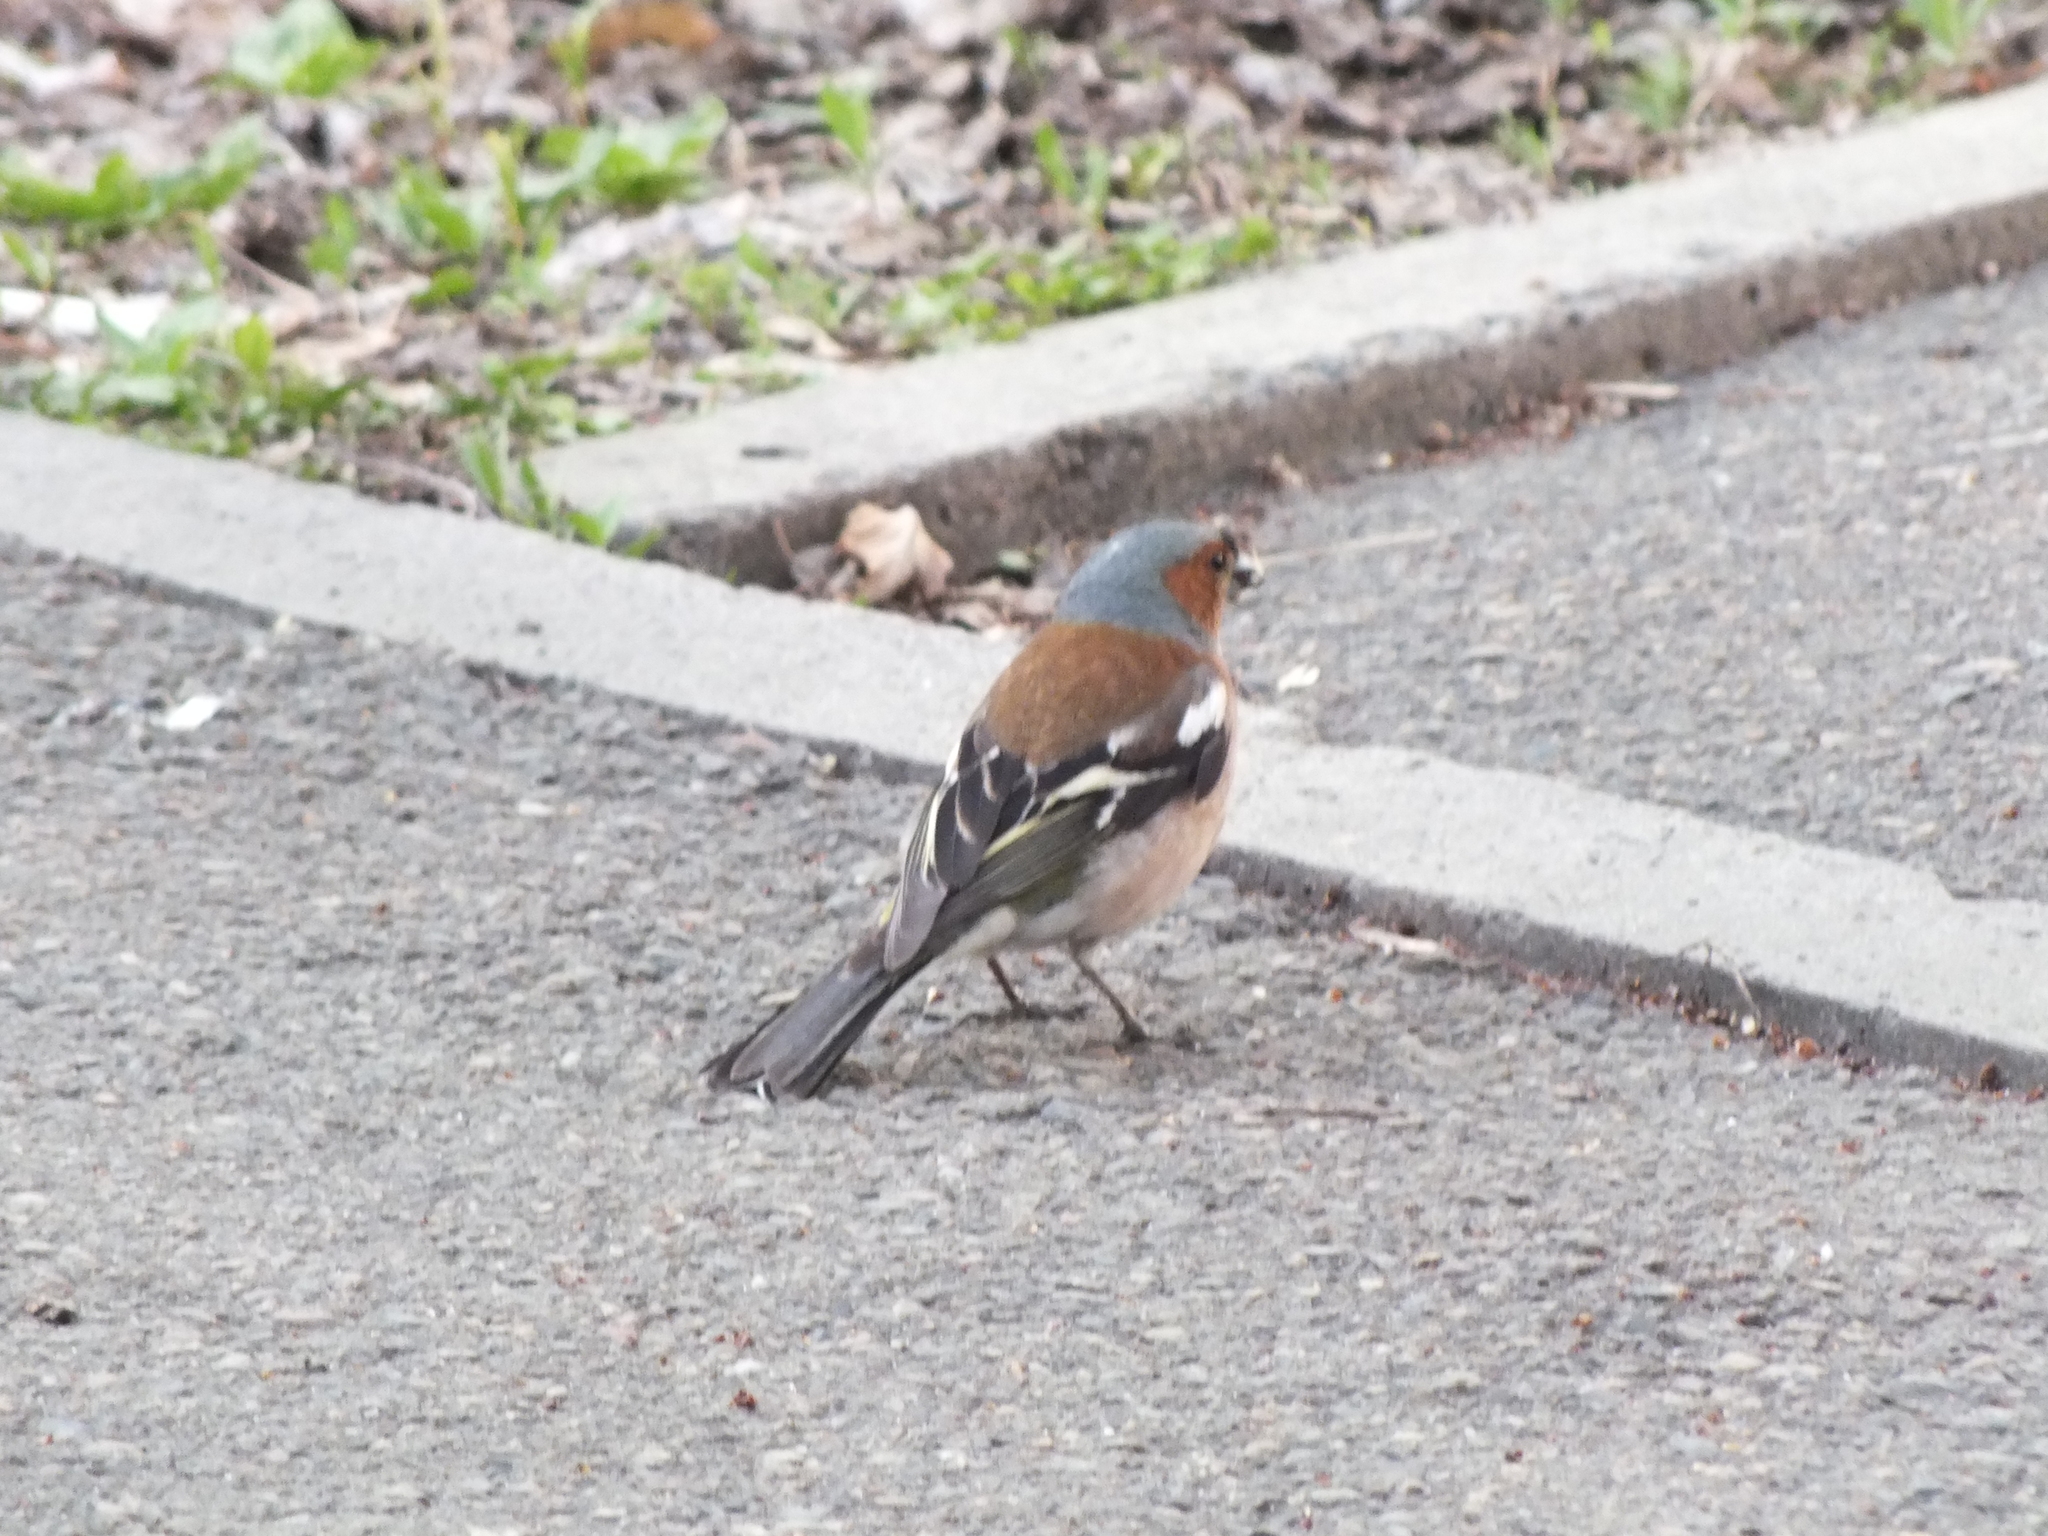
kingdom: Animalia
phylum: Chordata
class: Aves
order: Passeriformes
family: Fringillidae
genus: Fringilla
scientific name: Fringilla coelebs
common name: Common chaffinch
